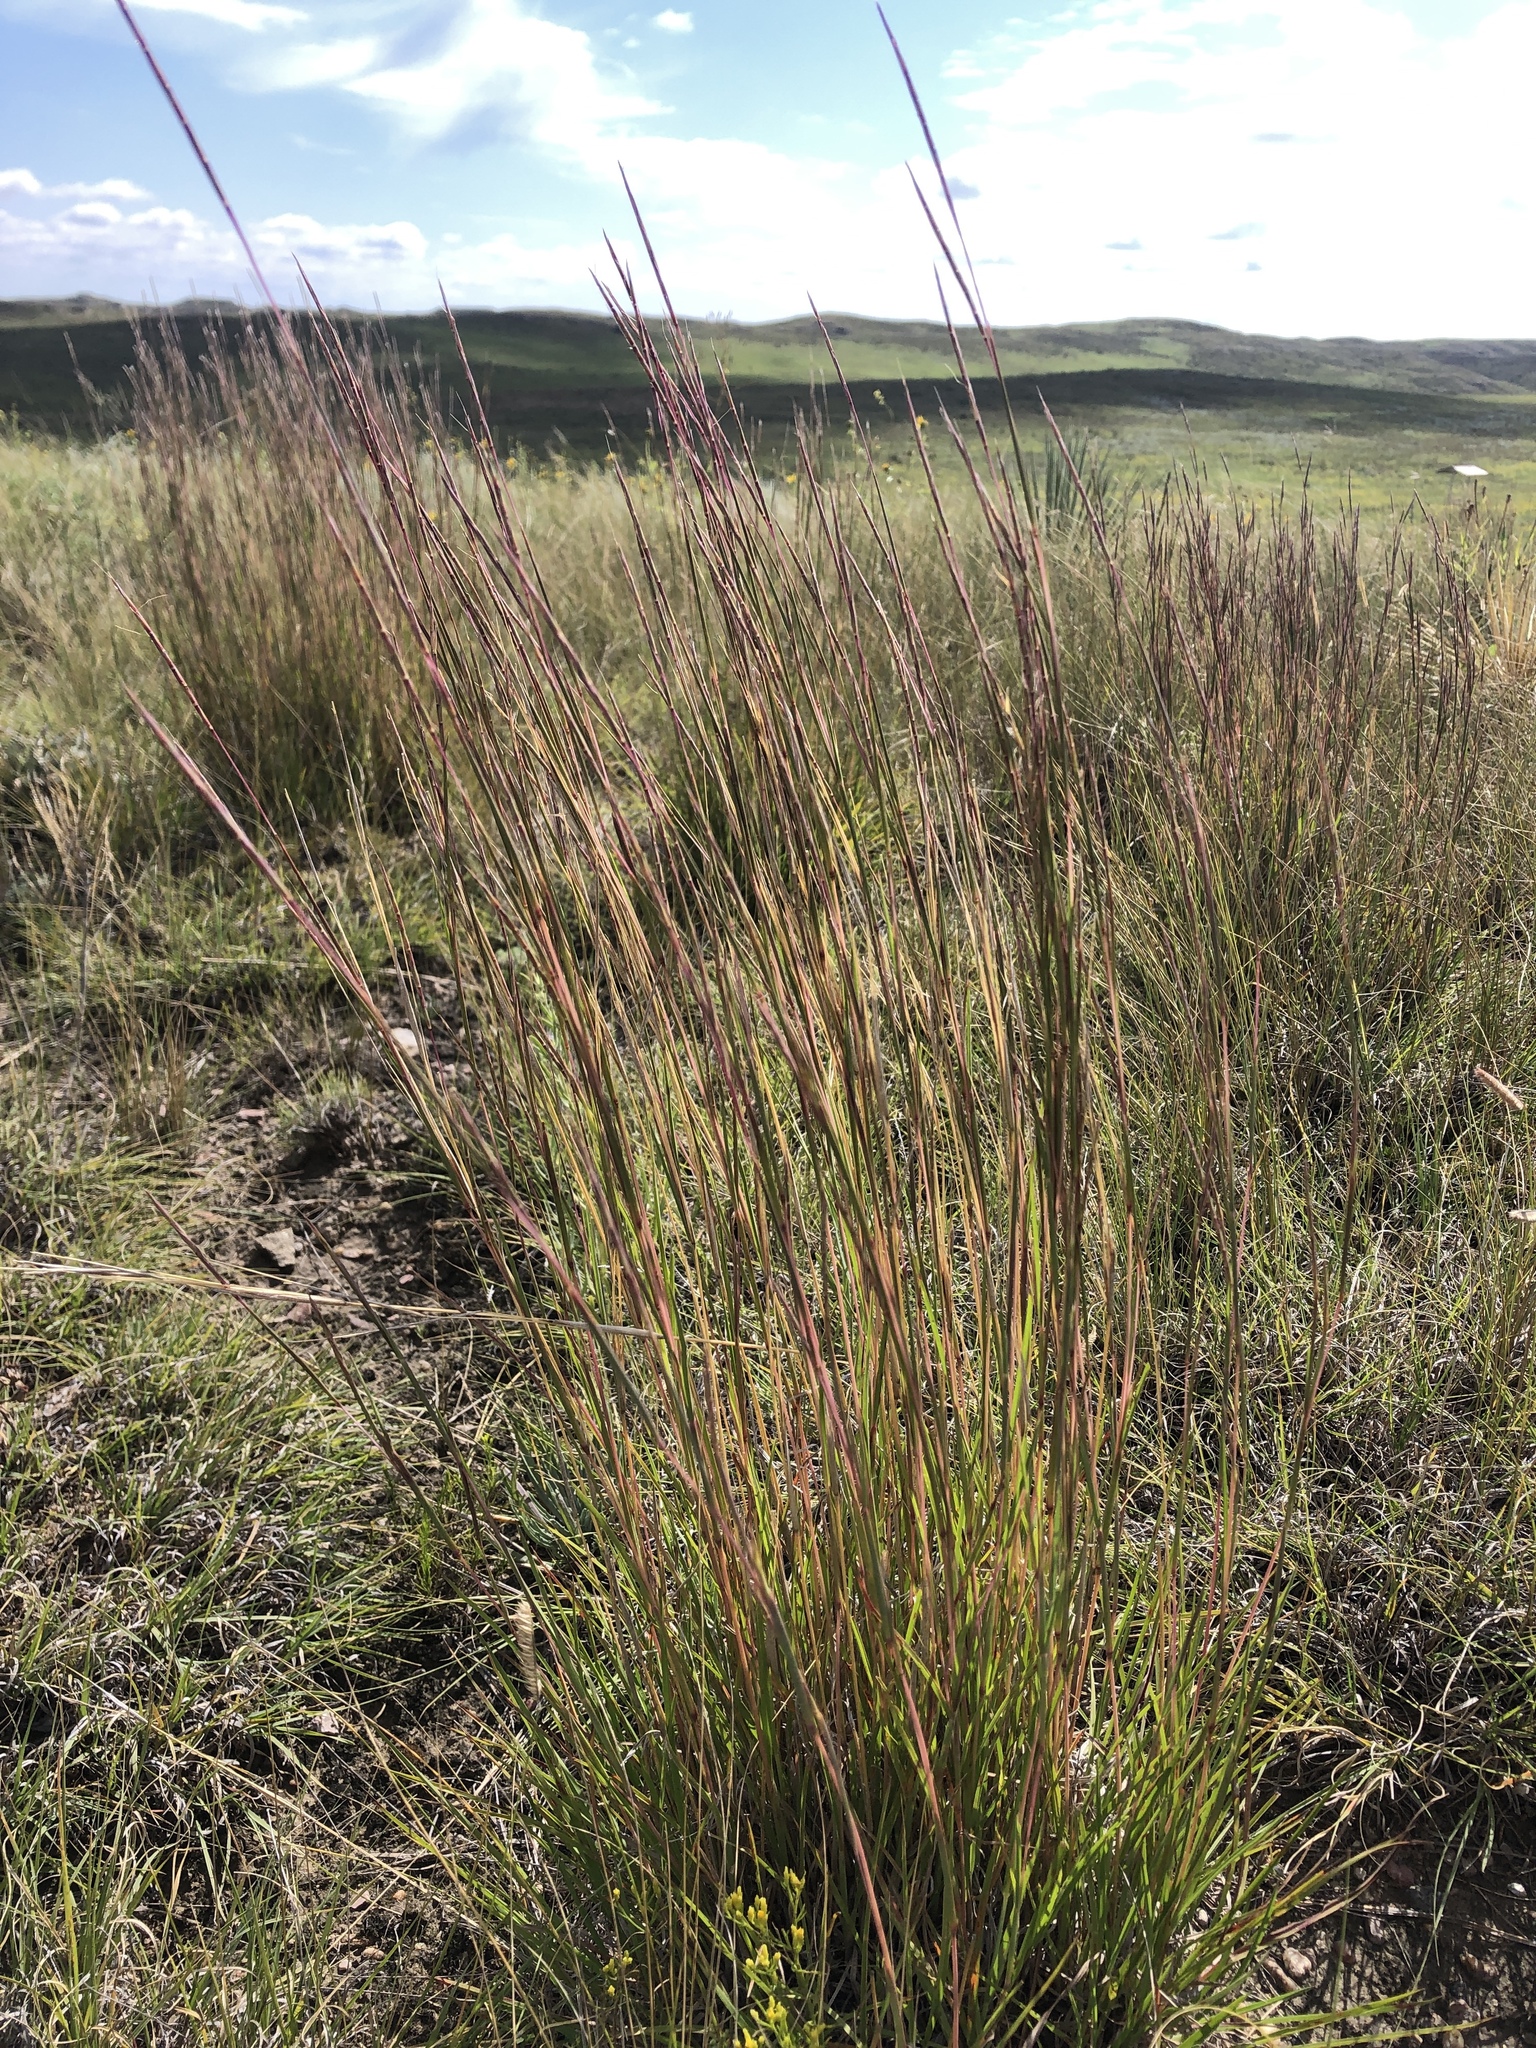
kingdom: Plantae
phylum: Tracheophyta
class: Liliopsida
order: Poales
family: Poaceae
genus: Schizachyrium
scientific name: Schizachyrium scoparium
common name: Little bluestem
